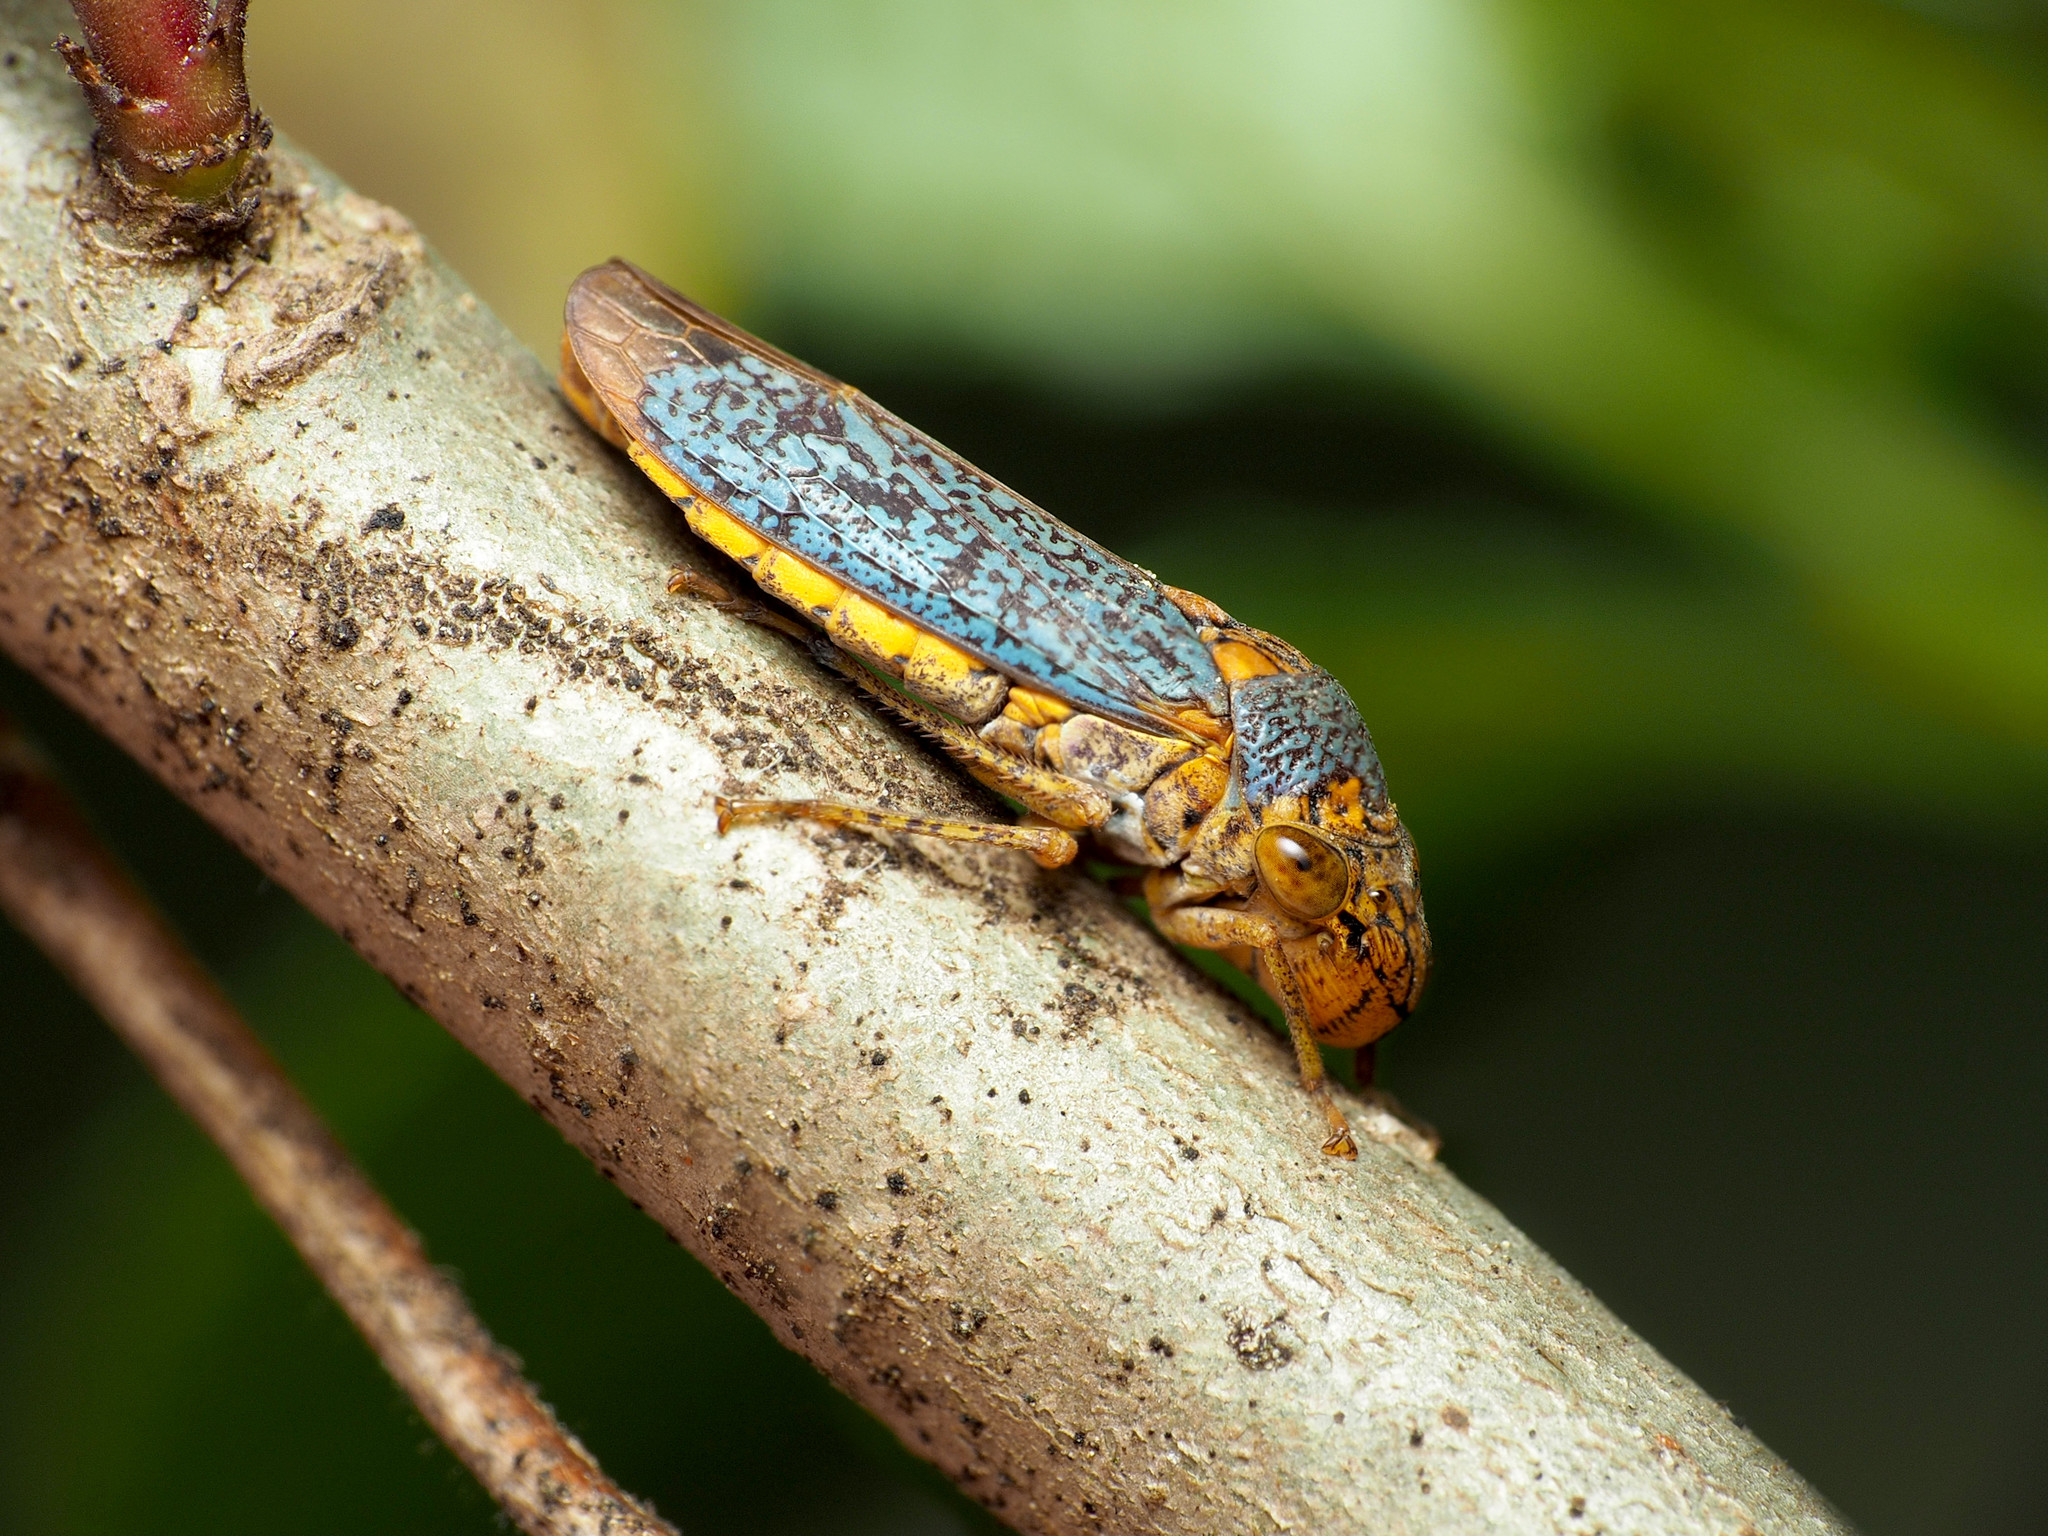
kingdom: Animalia
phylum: Arthropoda
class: Insecta
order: Hemiptera
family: Cicadellidae
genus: Oncometopia
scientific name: Oncometopia orbona
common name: Broad-headed sharpshooter
